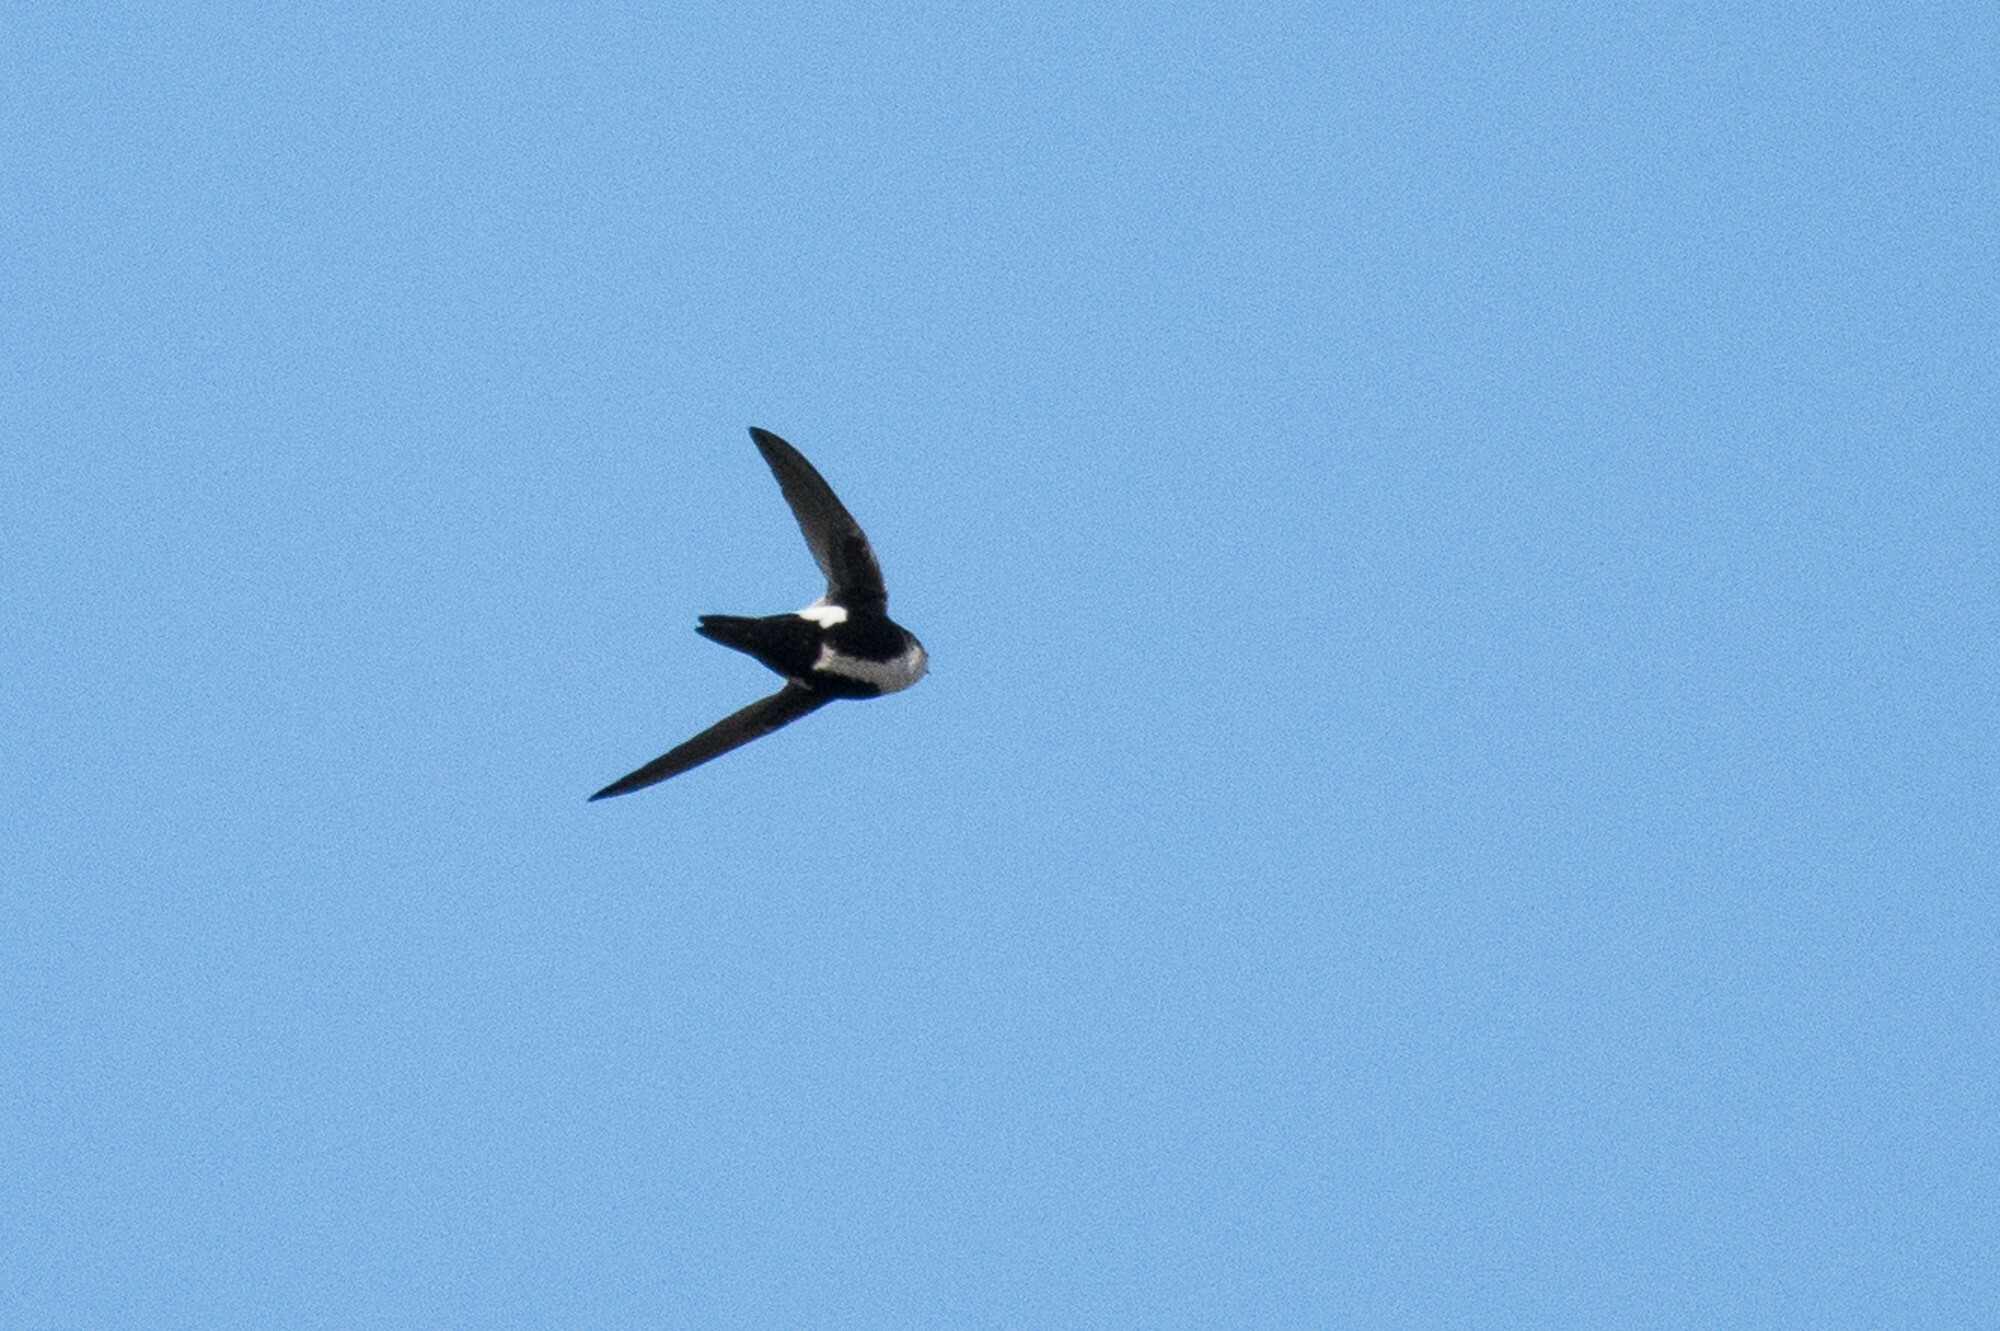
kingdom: Animalia
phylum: Chordata
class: Aves
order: Apodiformes
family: Apodidae
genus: Aeronautes
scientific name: Aeronautes saxatalis
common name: White-throated swift
